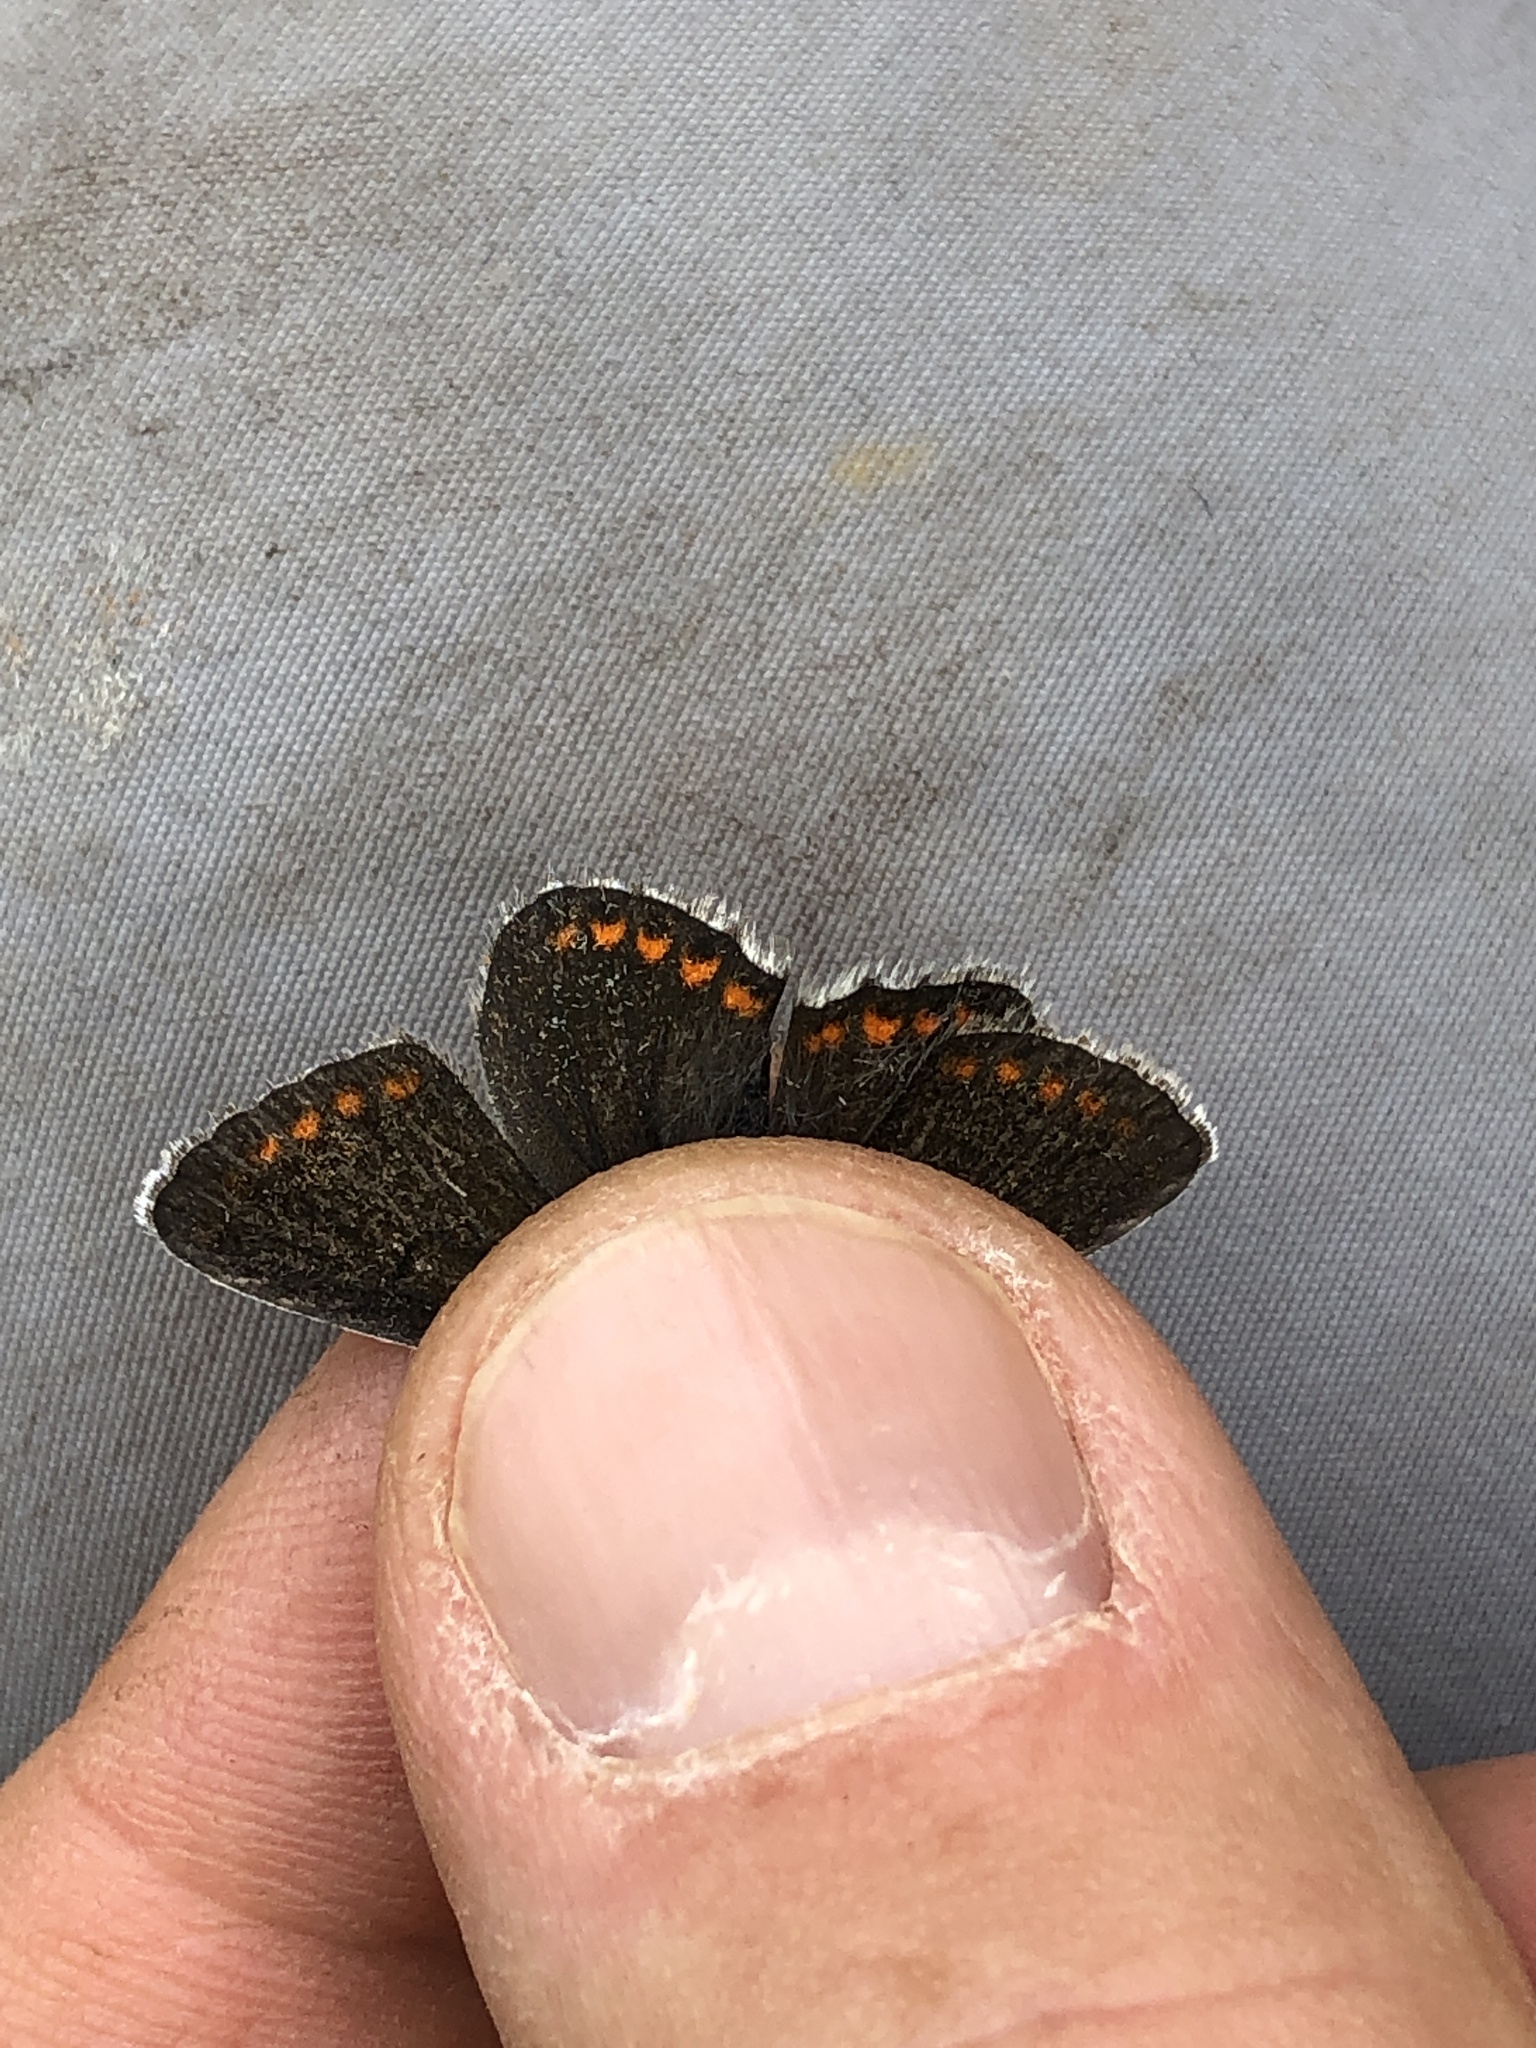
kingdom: Animalia
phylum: Arthropoda
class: Insecta
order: Lepidoptera
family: Lycaenidae
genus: Aricia
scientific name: Aricia artaxerxes
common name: Northern brown argus
